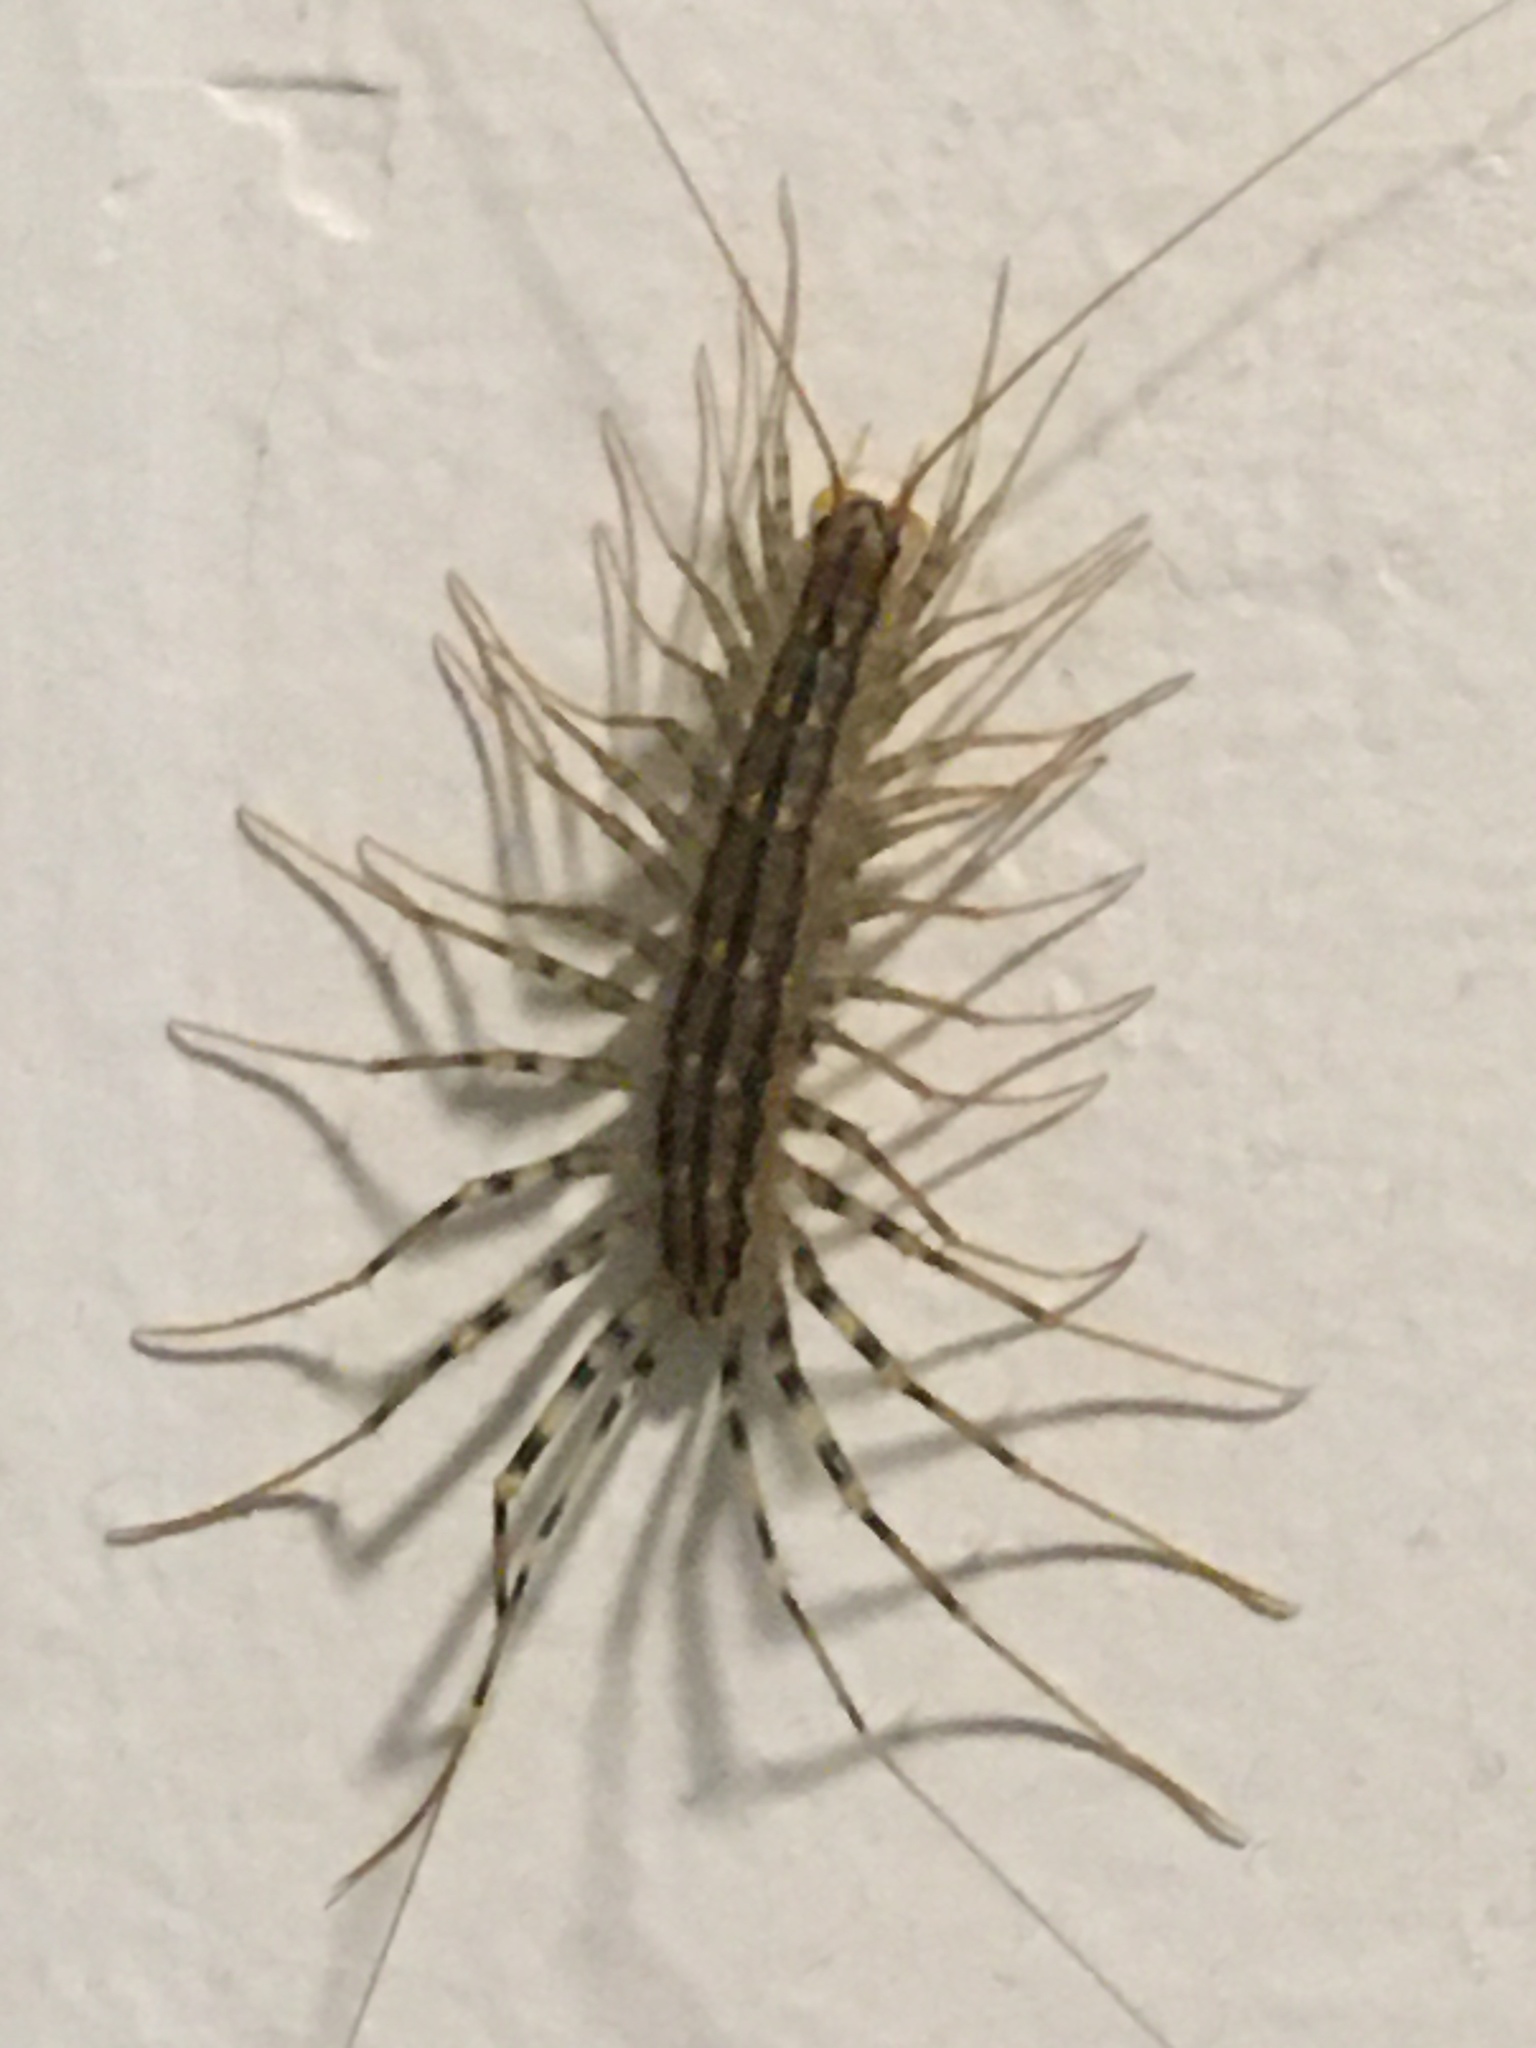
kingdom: Animalia
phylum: Arthropoda
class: Chilopoda
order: Scutigeromorpha
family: Scutigeridae
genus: Scutigera
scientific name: Scutigera coleoptrata
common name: House centipede
